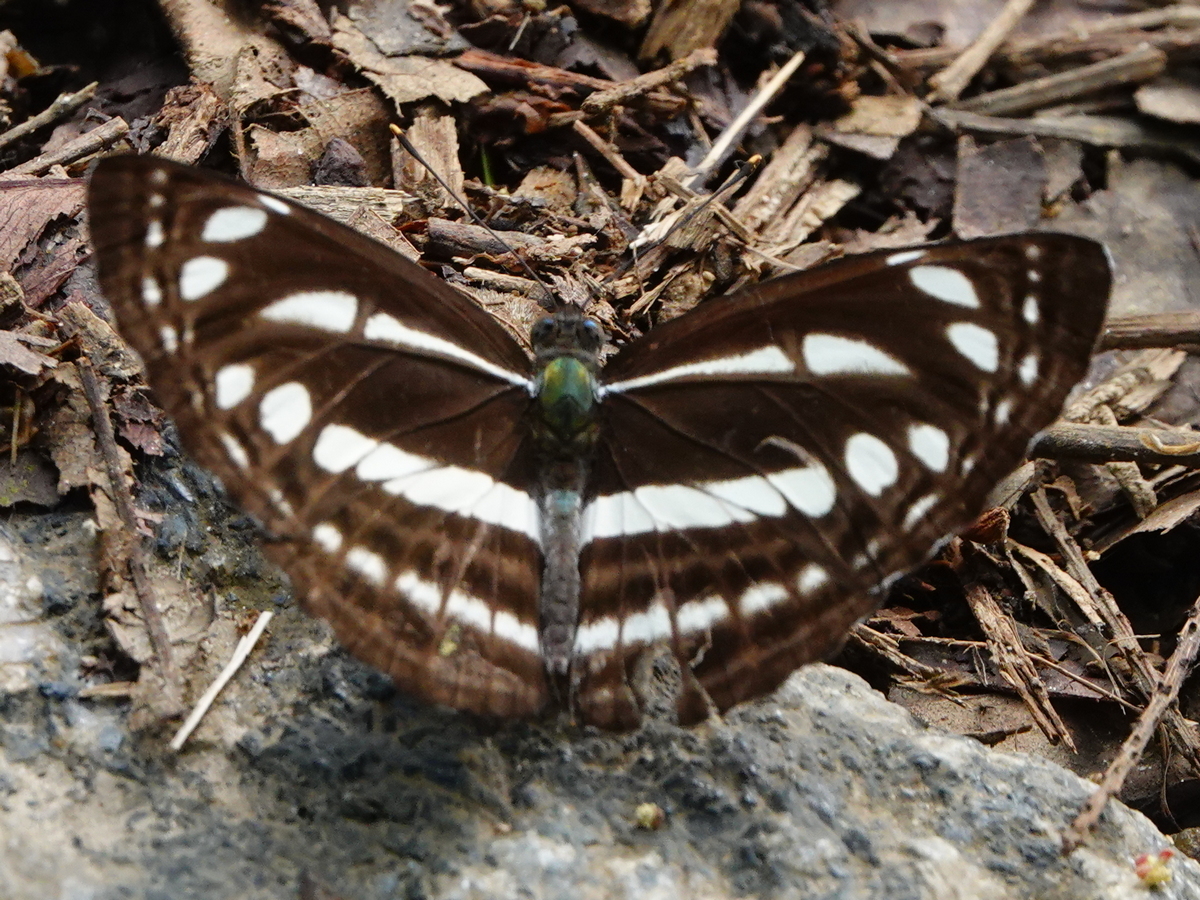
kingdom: Animalia
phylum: Arthropoda
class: Insecta
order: Lepidoptera
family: Nymphalidae
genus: Neptis
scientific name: Neptis clinia
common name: Southern sullied sailer
